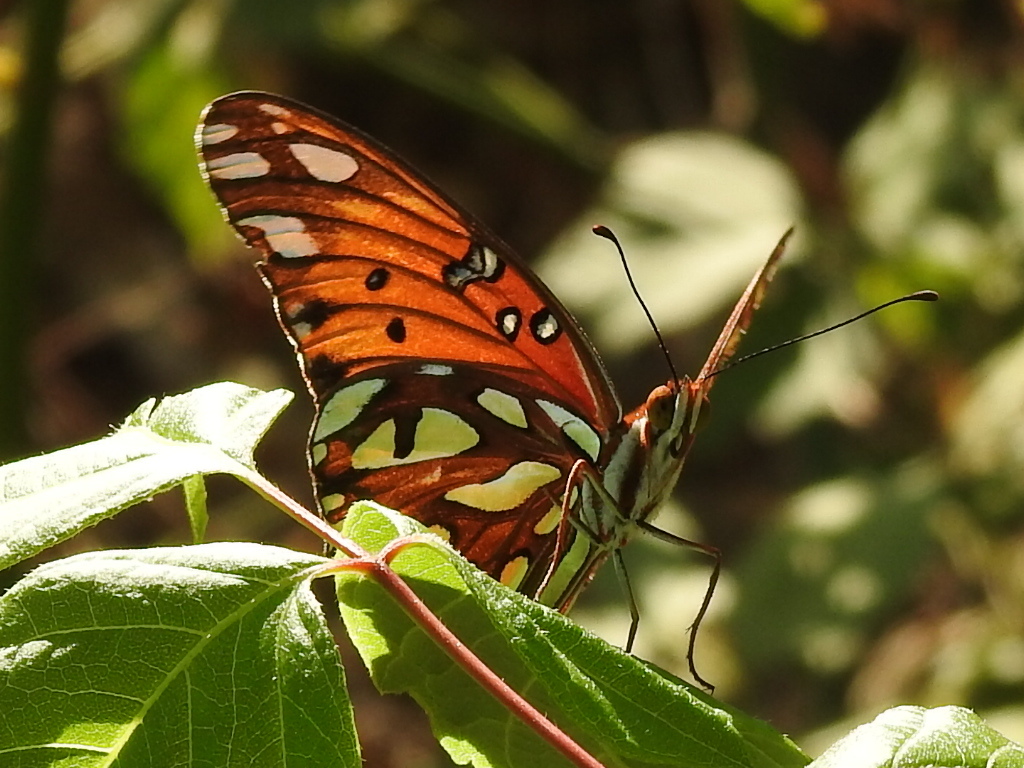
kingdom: Animalia
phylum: Arthropoda
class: Insecta
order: Lepidoptera
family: Nymphalidae
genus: Dione
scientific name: Dione vanillae
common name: Gulf fritillary
